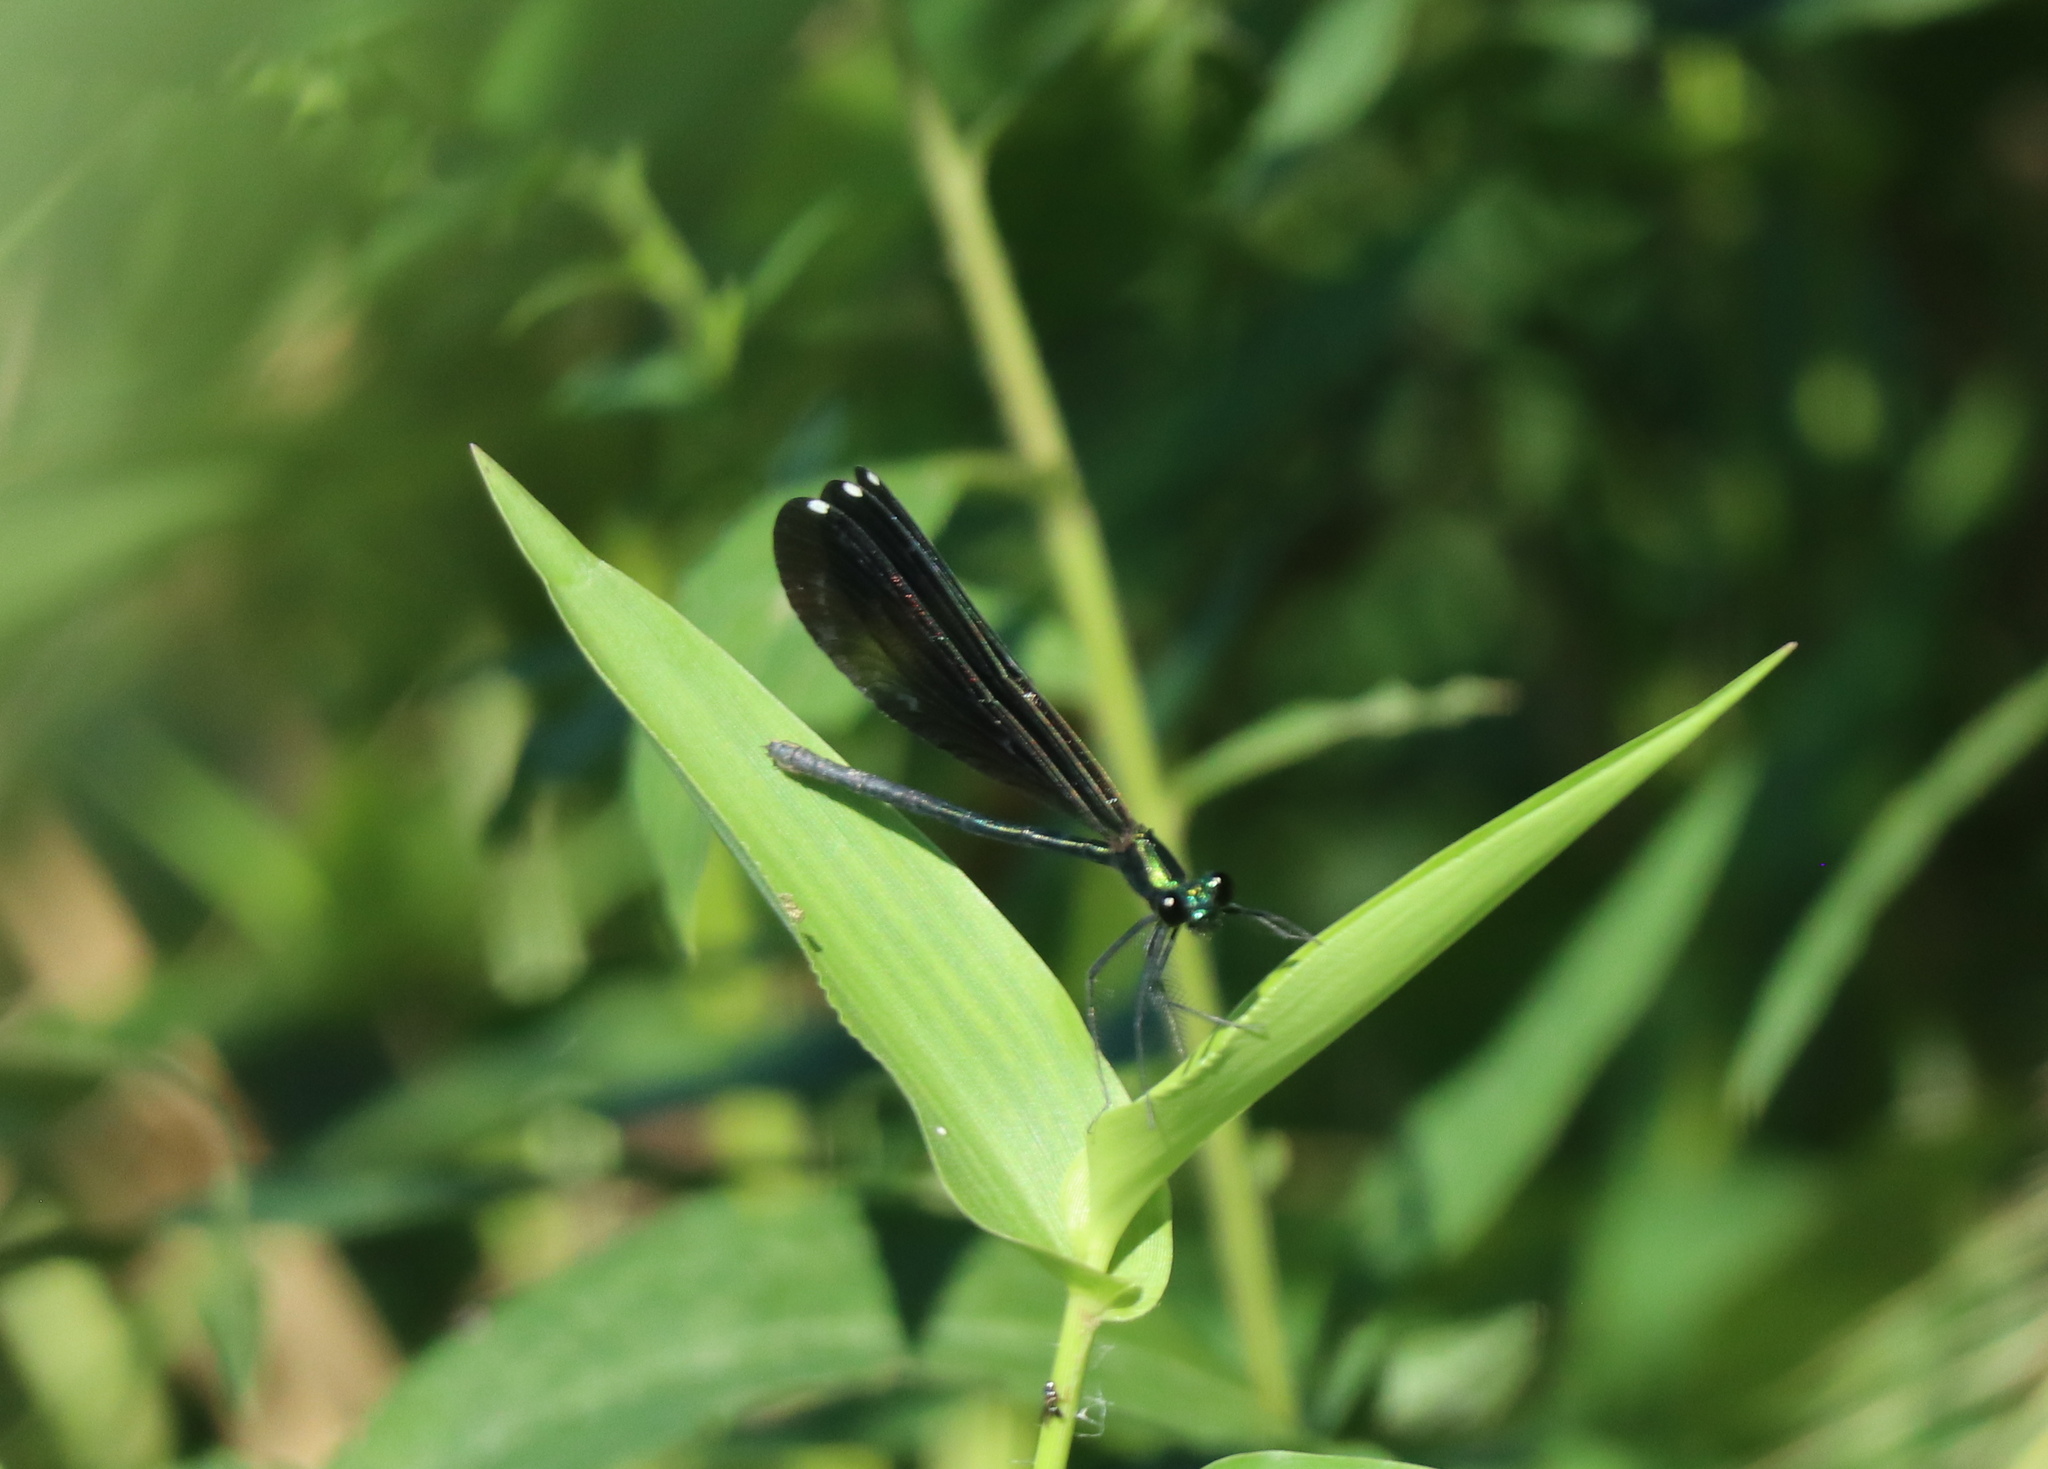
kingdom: Animalia
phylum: Arthropoda
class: Insecta
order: Odonata
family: Calopterygidae
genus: Calopteryx
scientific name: Calopteryx maculata
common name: Ebony jewelwing
